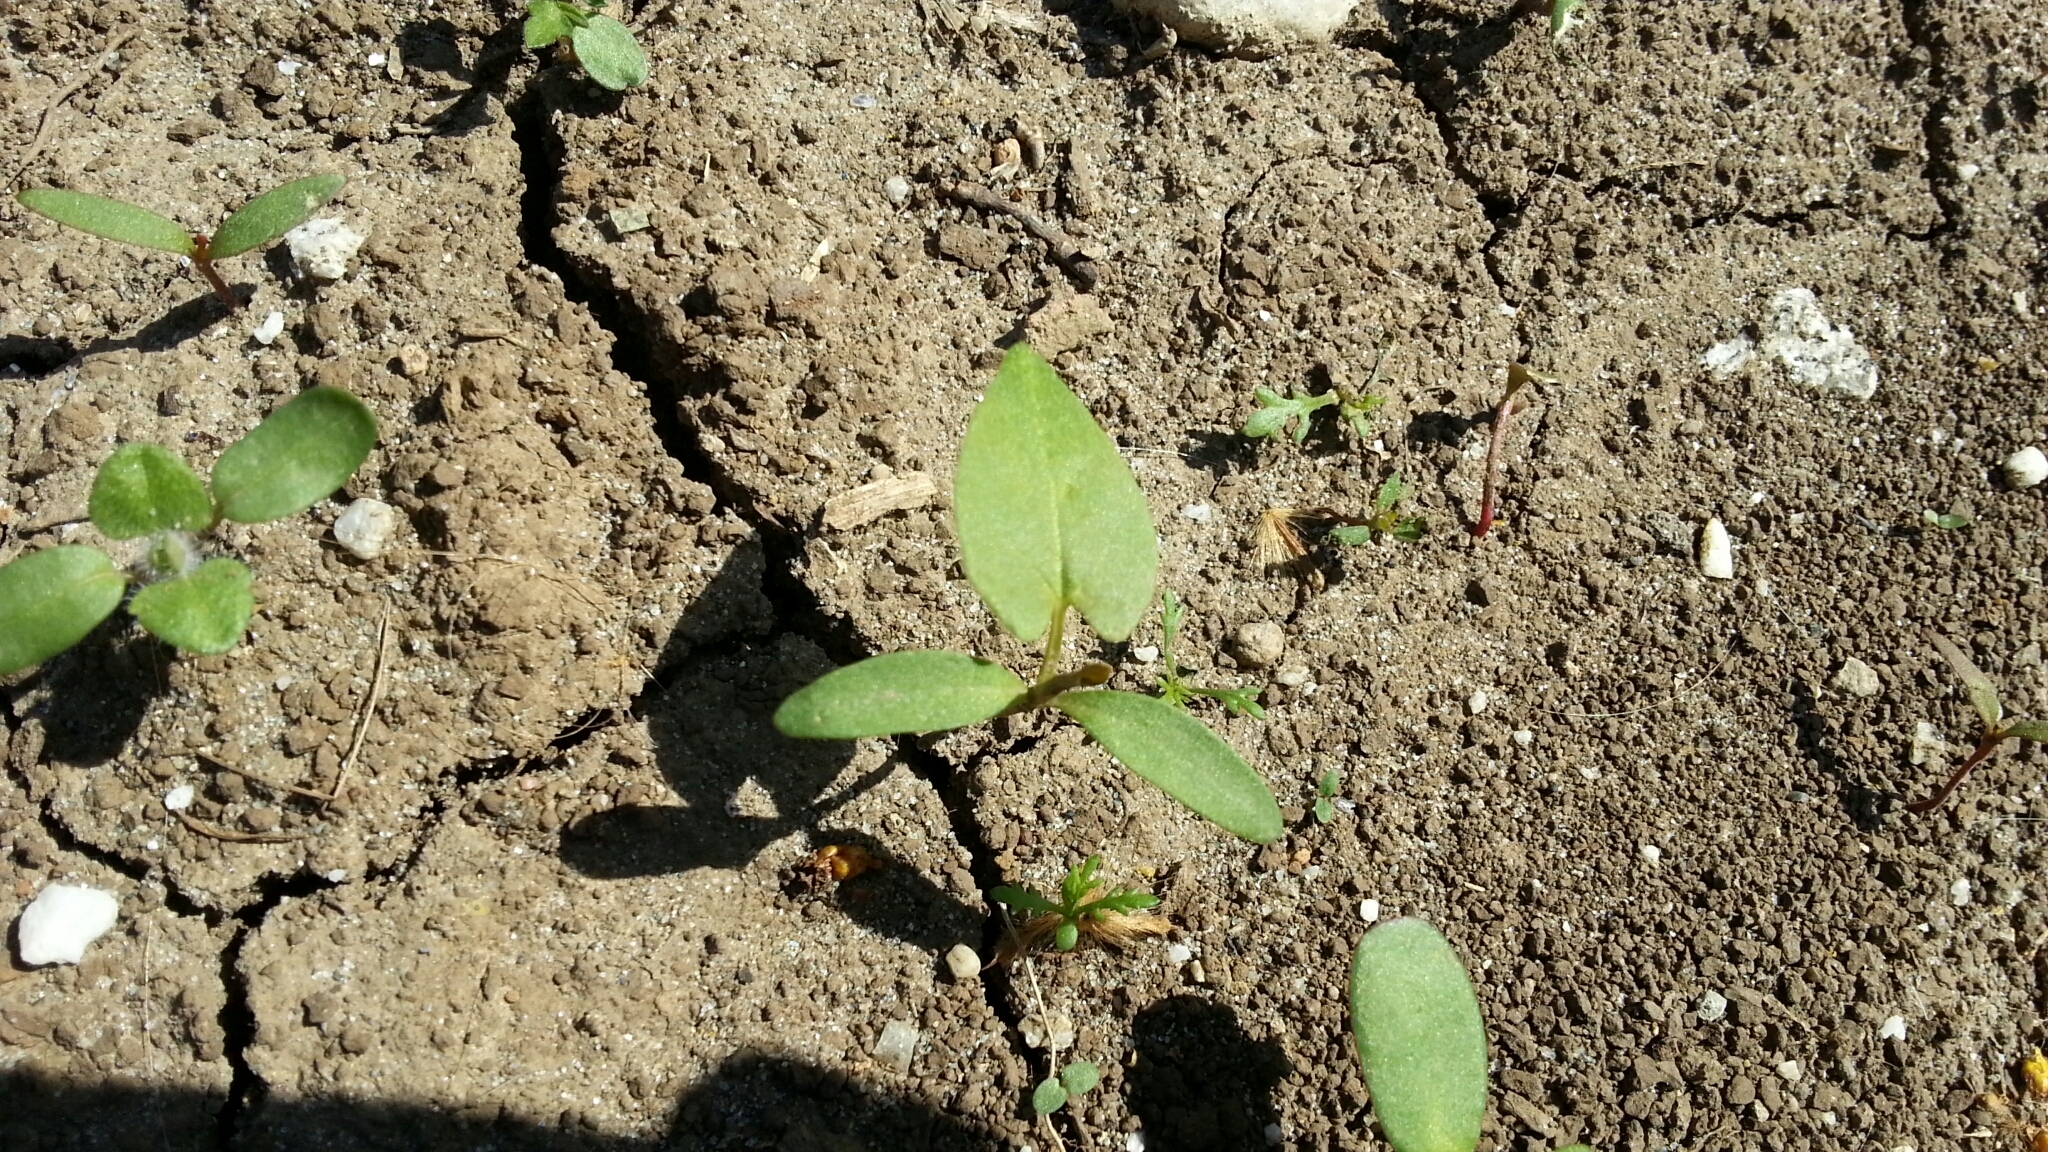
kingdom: Plantae
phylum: Tracheophyta
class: Magnoliopsida
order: Caryophyllales
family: Polygonaceae
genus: Fallopia
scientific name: Fallopia convolvulus
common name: Black bindweed
